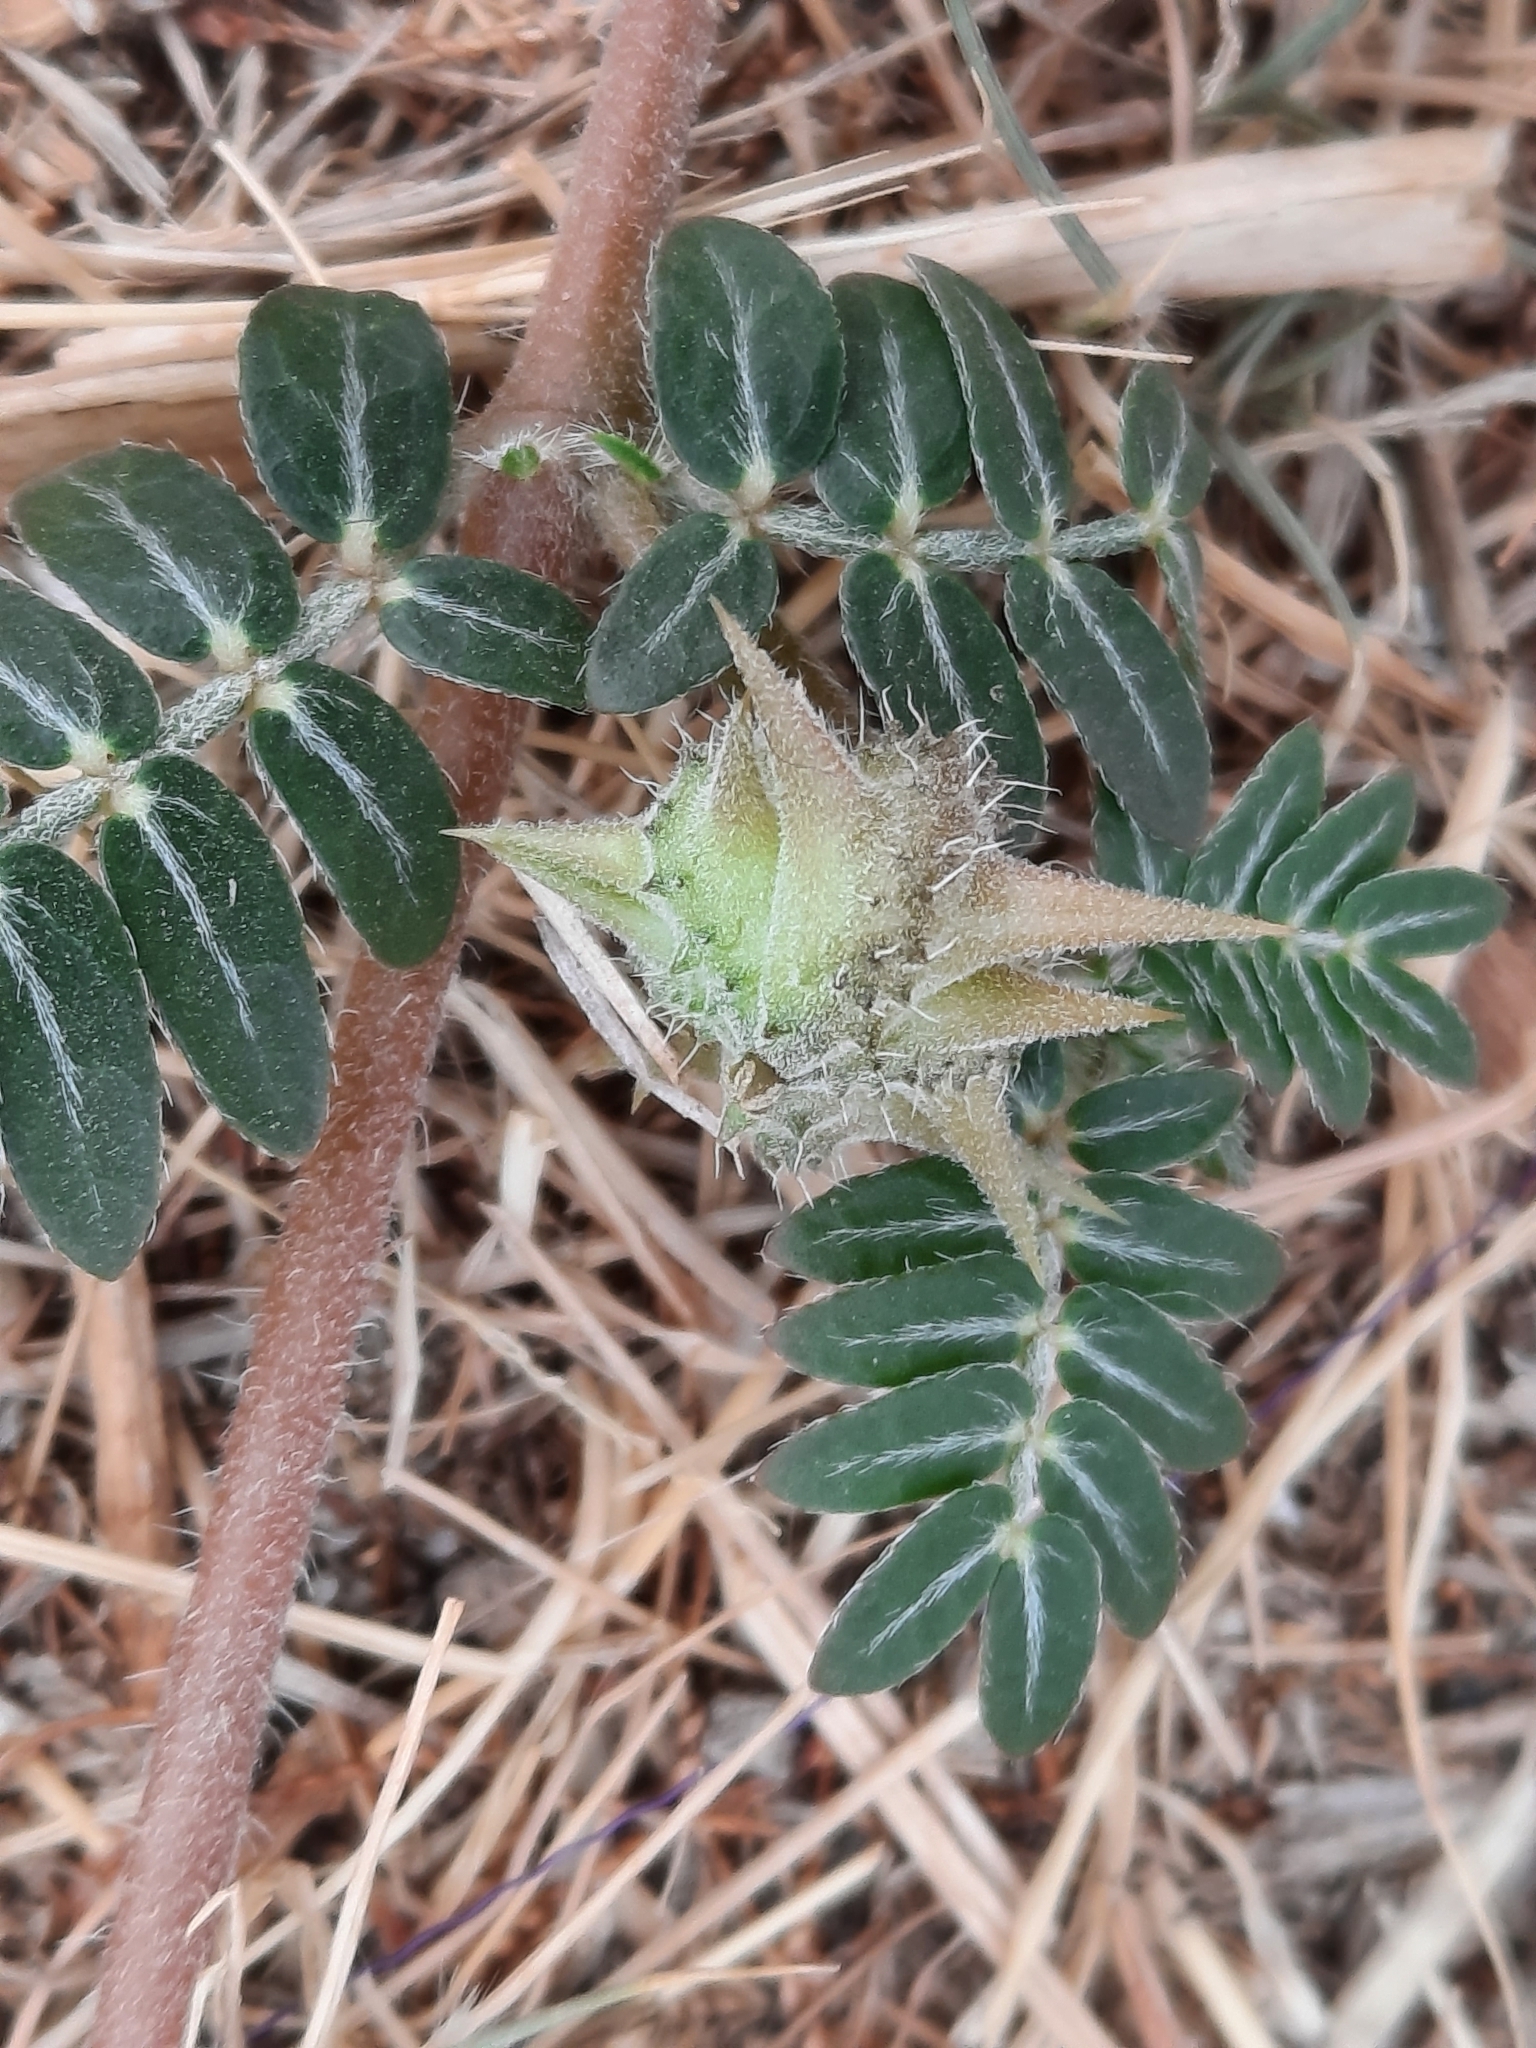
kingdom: Plantae
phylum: Tracheophyta
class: Magnoliopsida
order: Zygophyllales
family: Zygophyllaceae
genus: Tribulus
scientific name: Tribulus terrestris
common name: Puncturevine
